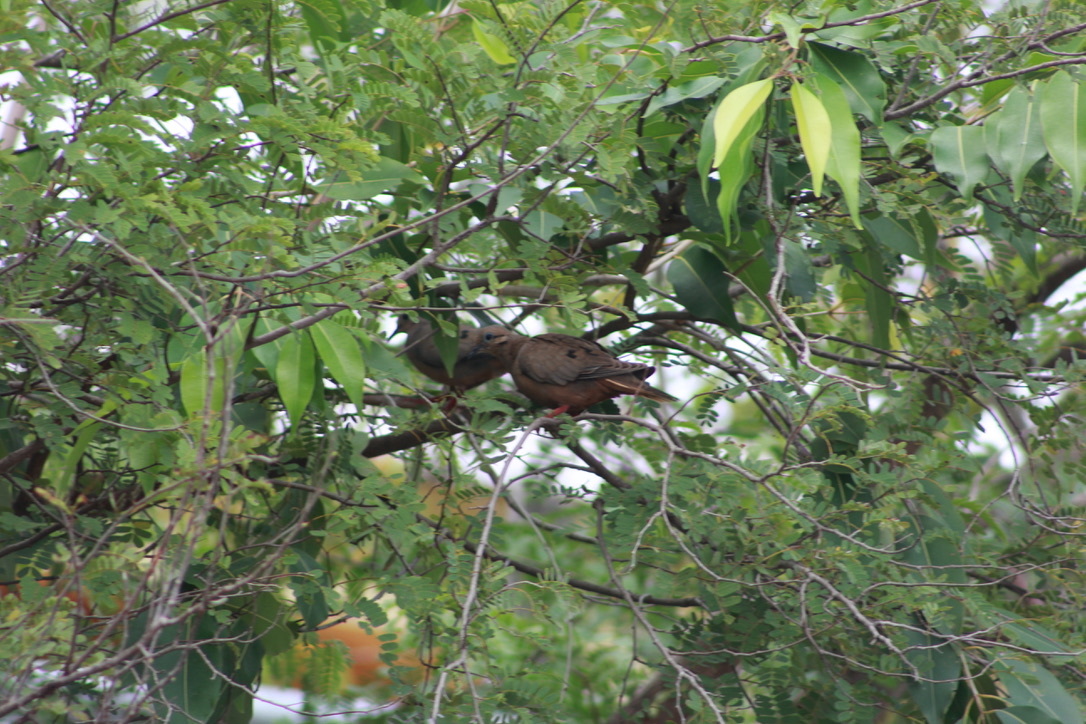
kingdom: Animalia
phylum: Chordata
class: Aves
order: Columbiformes
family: Columbidae
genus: Zenaida
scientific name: Zenaida aurita
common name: Zenaida dove
